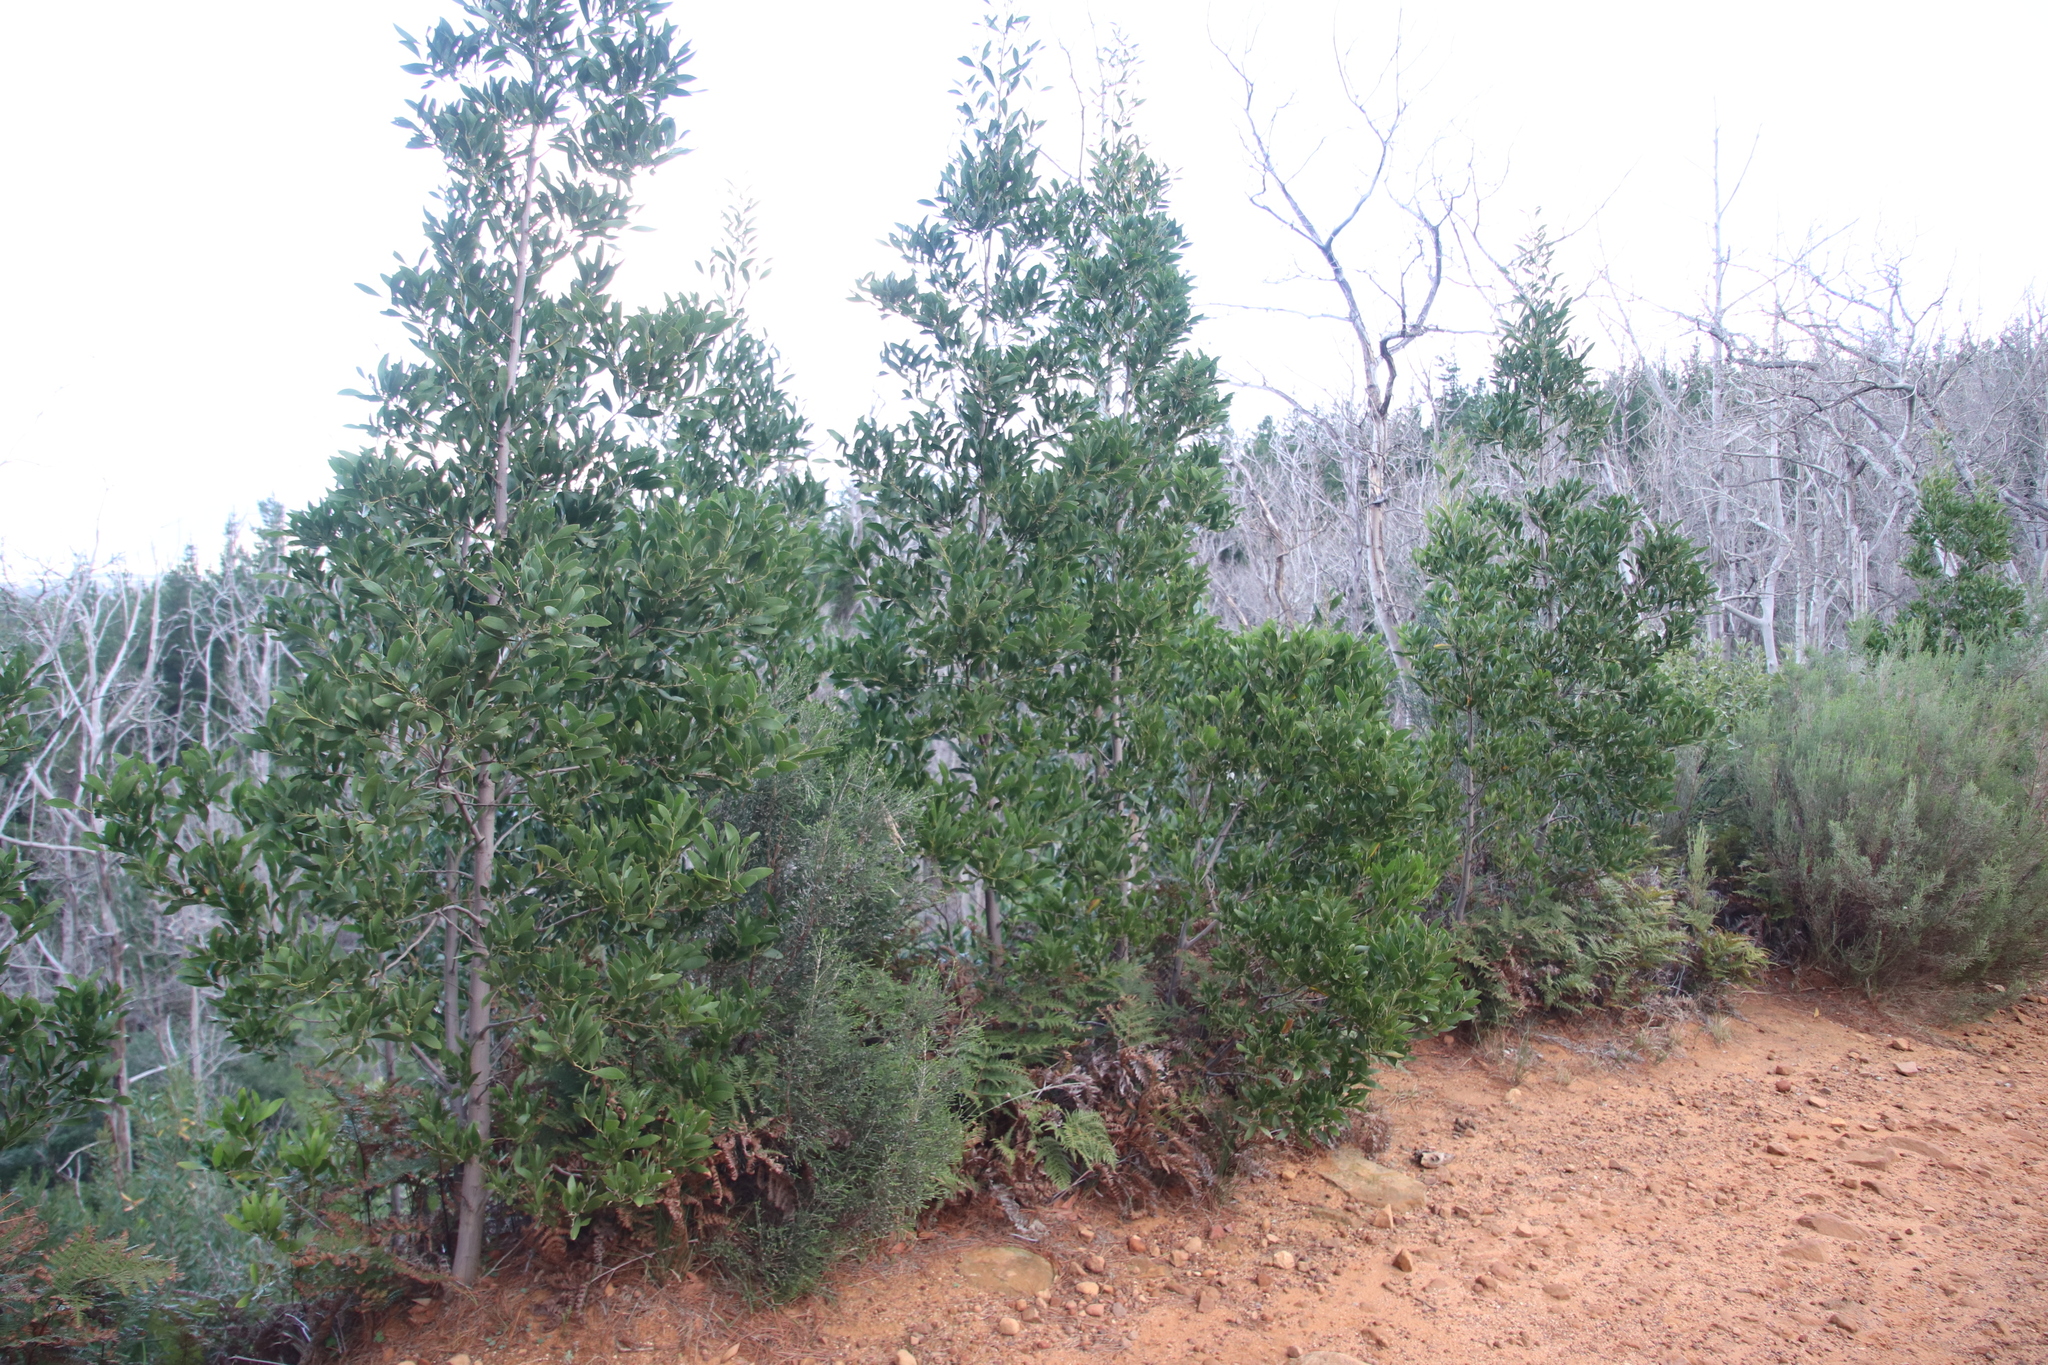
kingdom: Plantae
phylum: Tracheophyta
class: Magnoliopsida
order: Fabales
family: Fabaceae
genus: Acacia
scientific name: Acacia melanoxylon
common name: Blackwood
